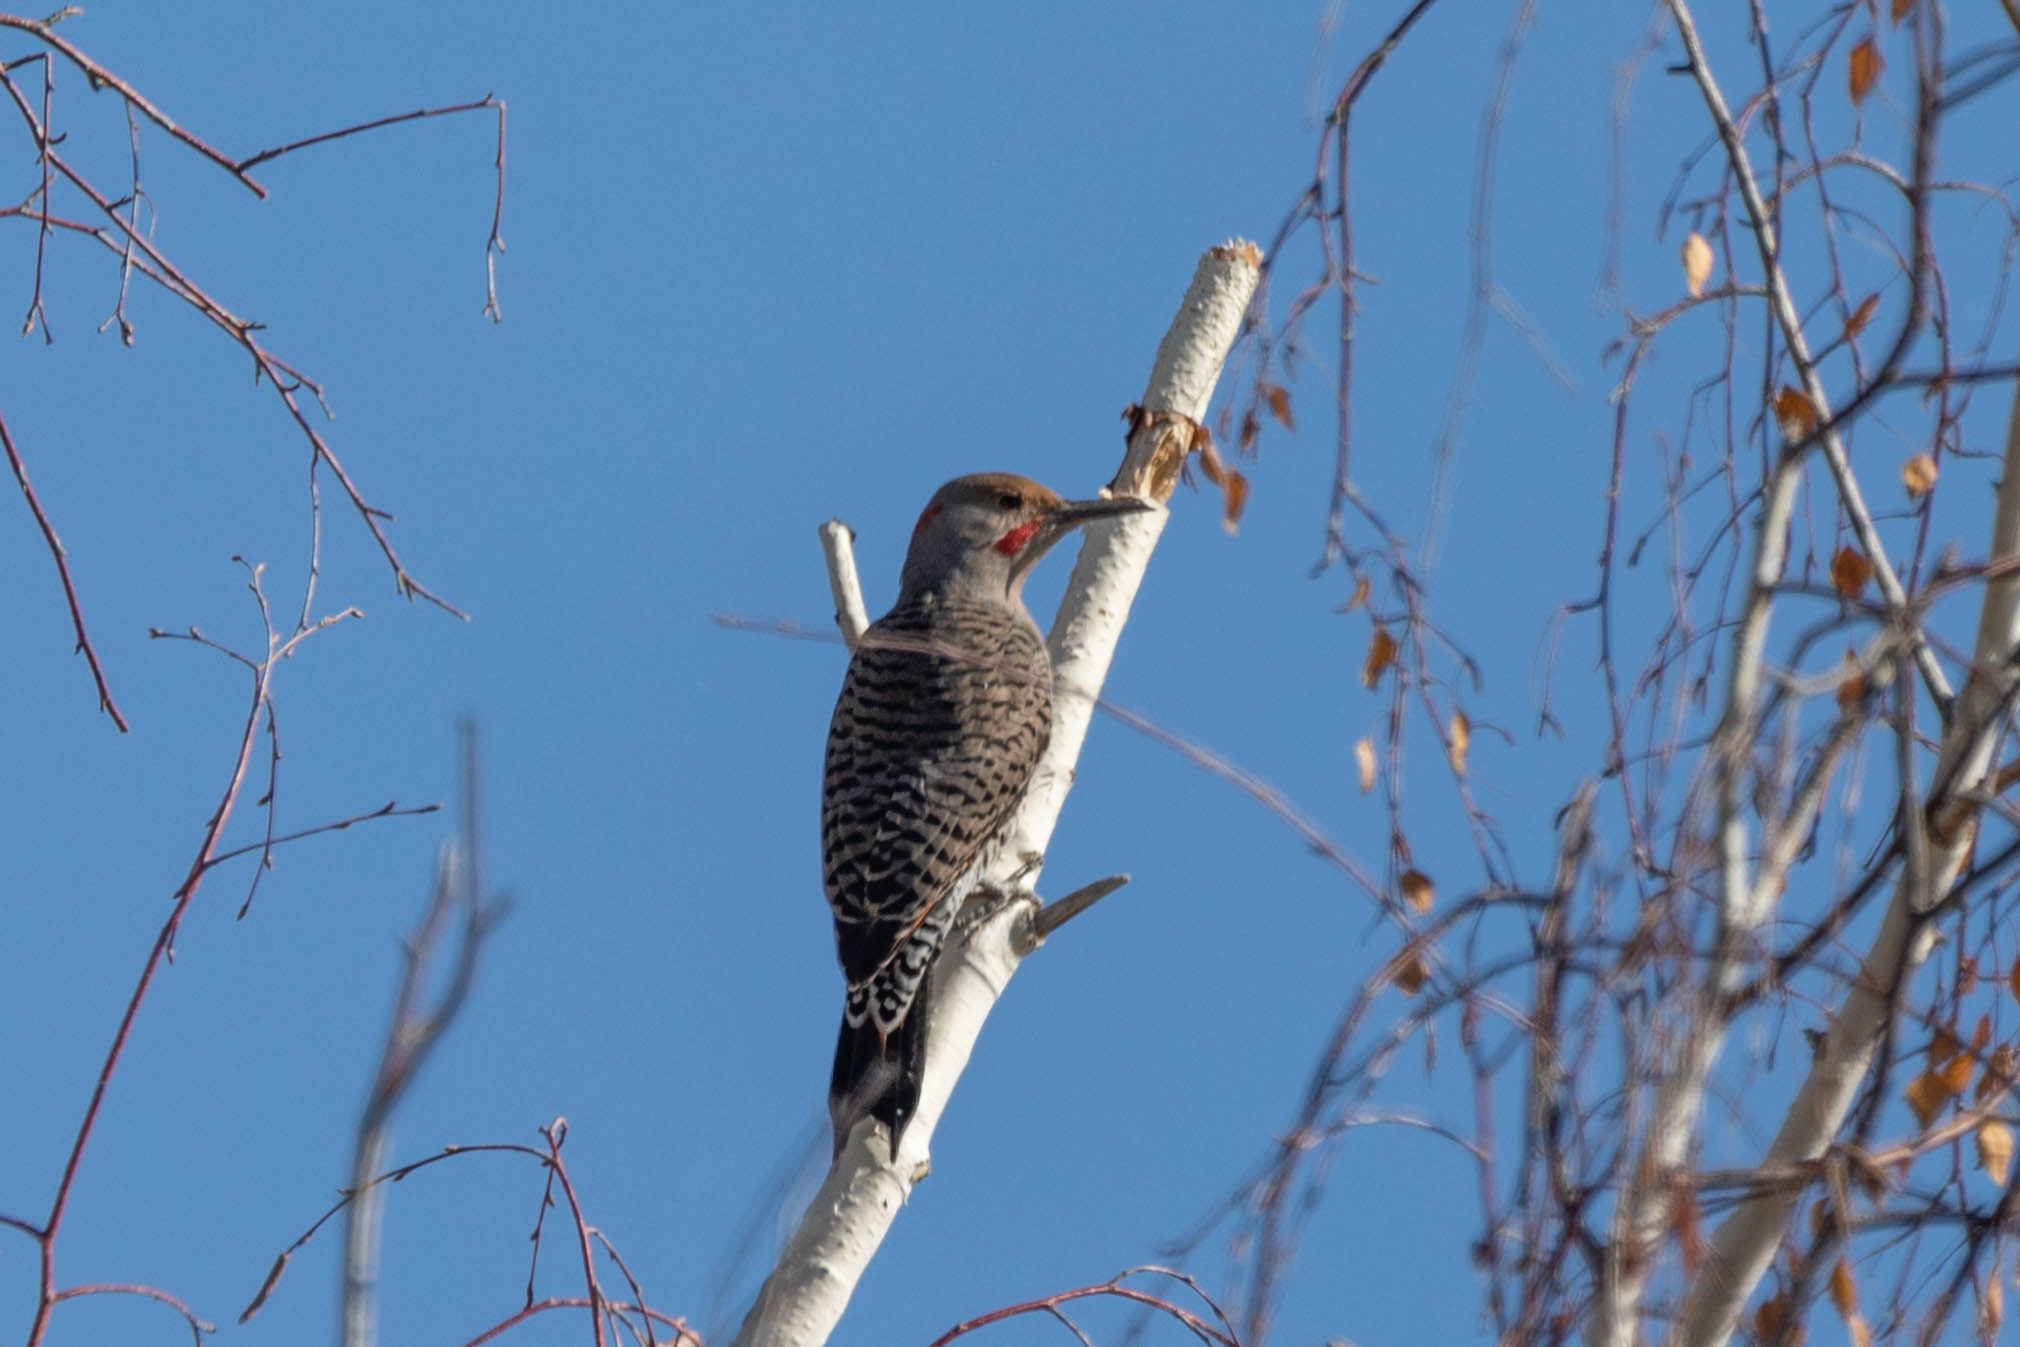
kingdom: Animalia
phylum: Chordata
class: Aves
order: Piciformes
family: Picidae
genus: Colaptes
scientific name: Colaptes
